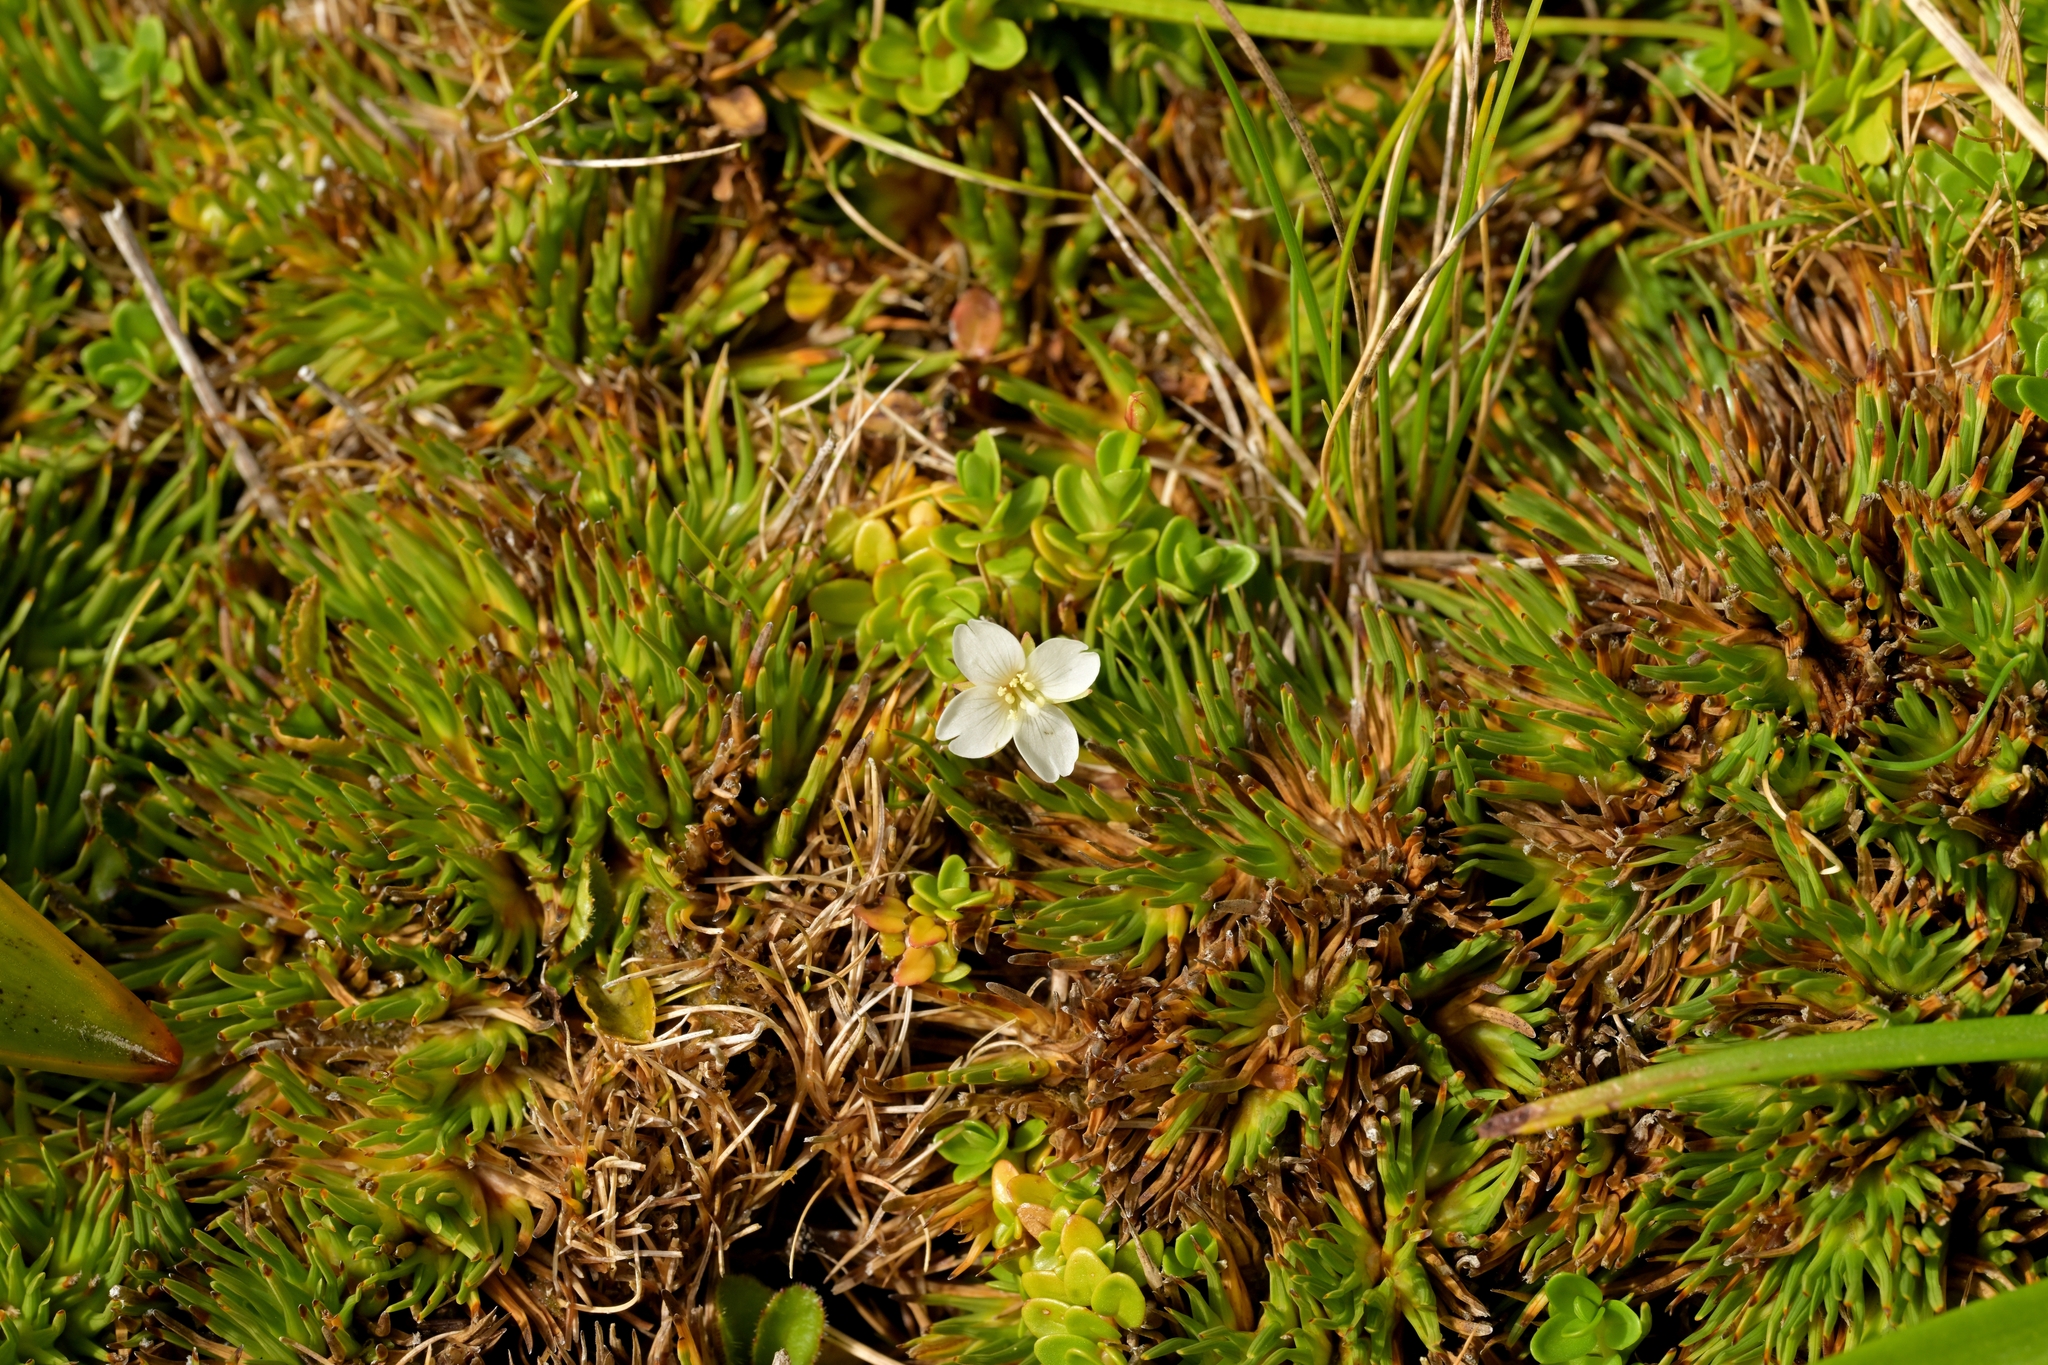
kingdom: Plantae
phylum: Tracheophyta
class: Magnoliopsida
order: Myrtales
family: Onagraceae
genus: Epilobium
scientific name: Epilobium confertifolium
